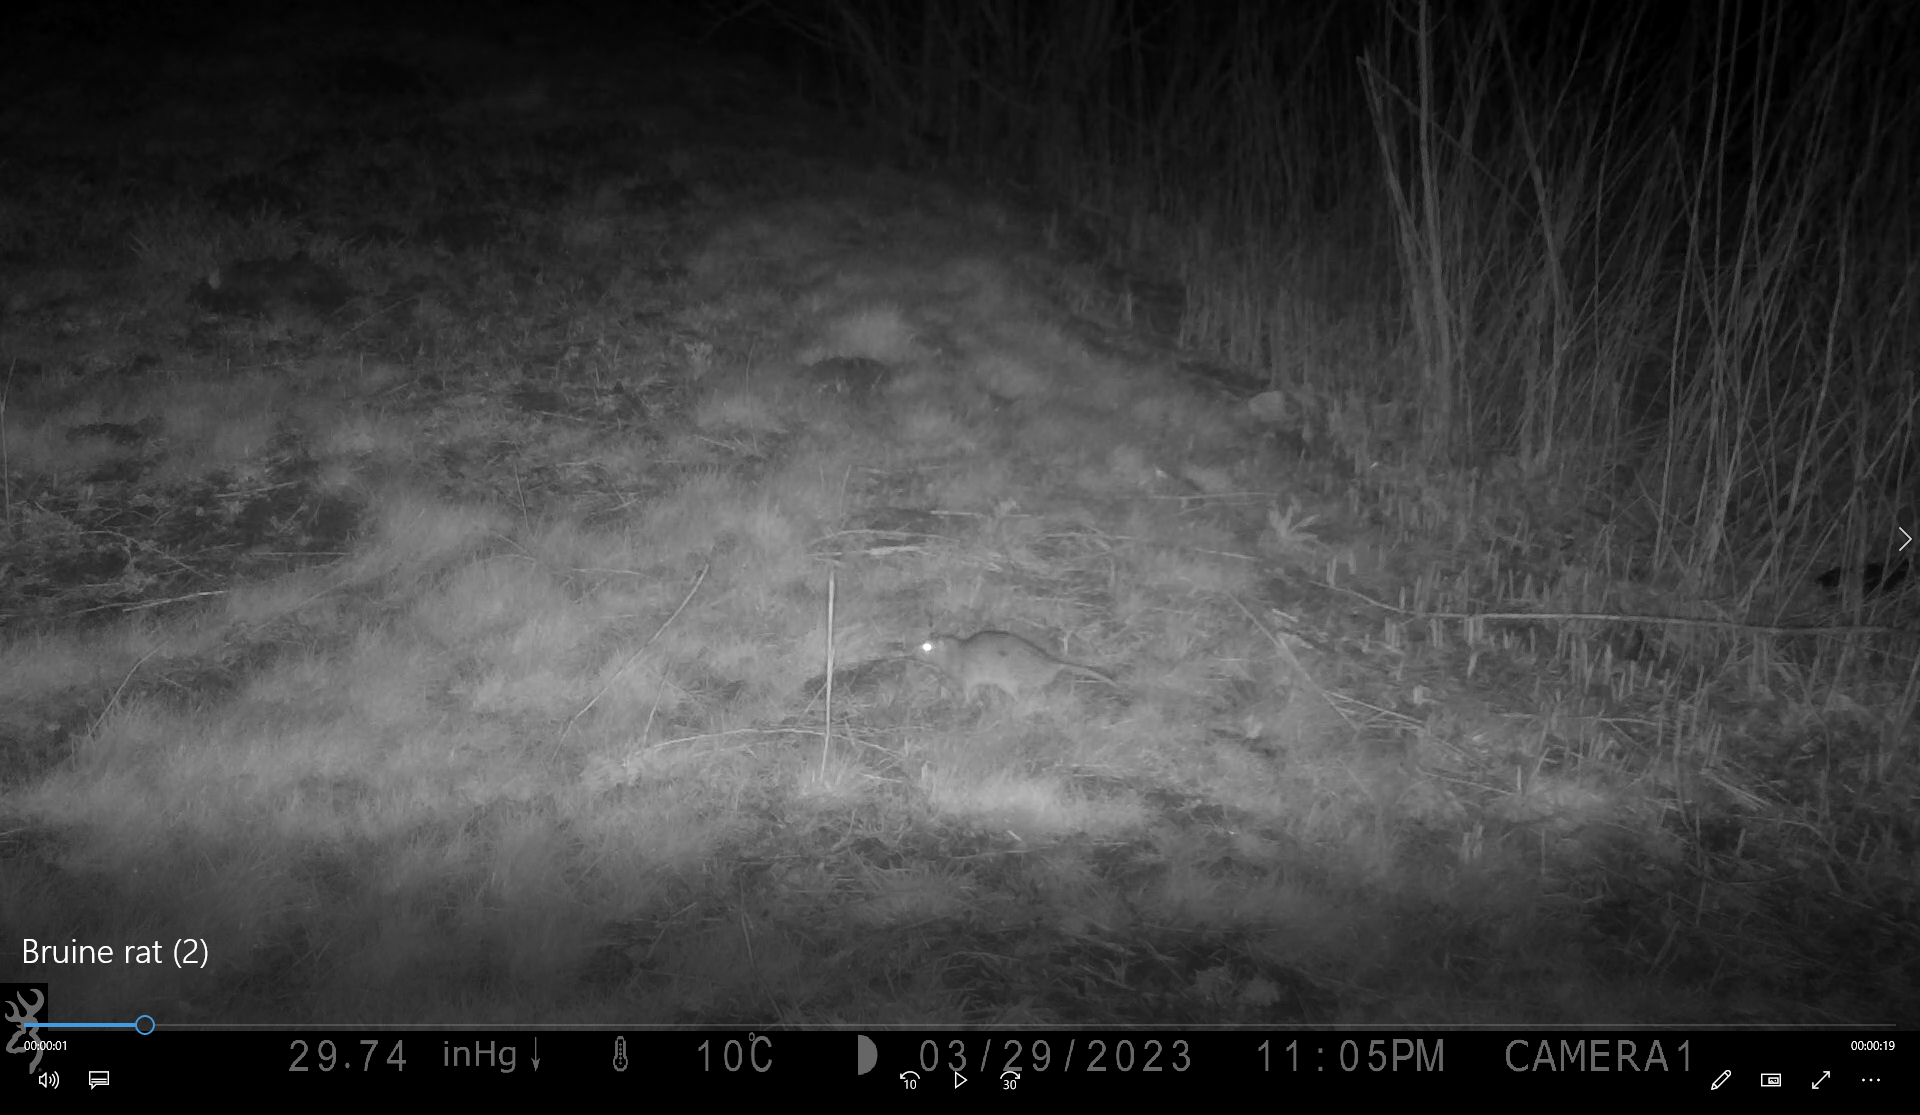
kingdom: Animalia
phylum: Chordata
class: Mammalia
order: Rodentia
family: Muridae
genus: Rattus
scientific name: Rattus norvegicus
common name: Brown rat
